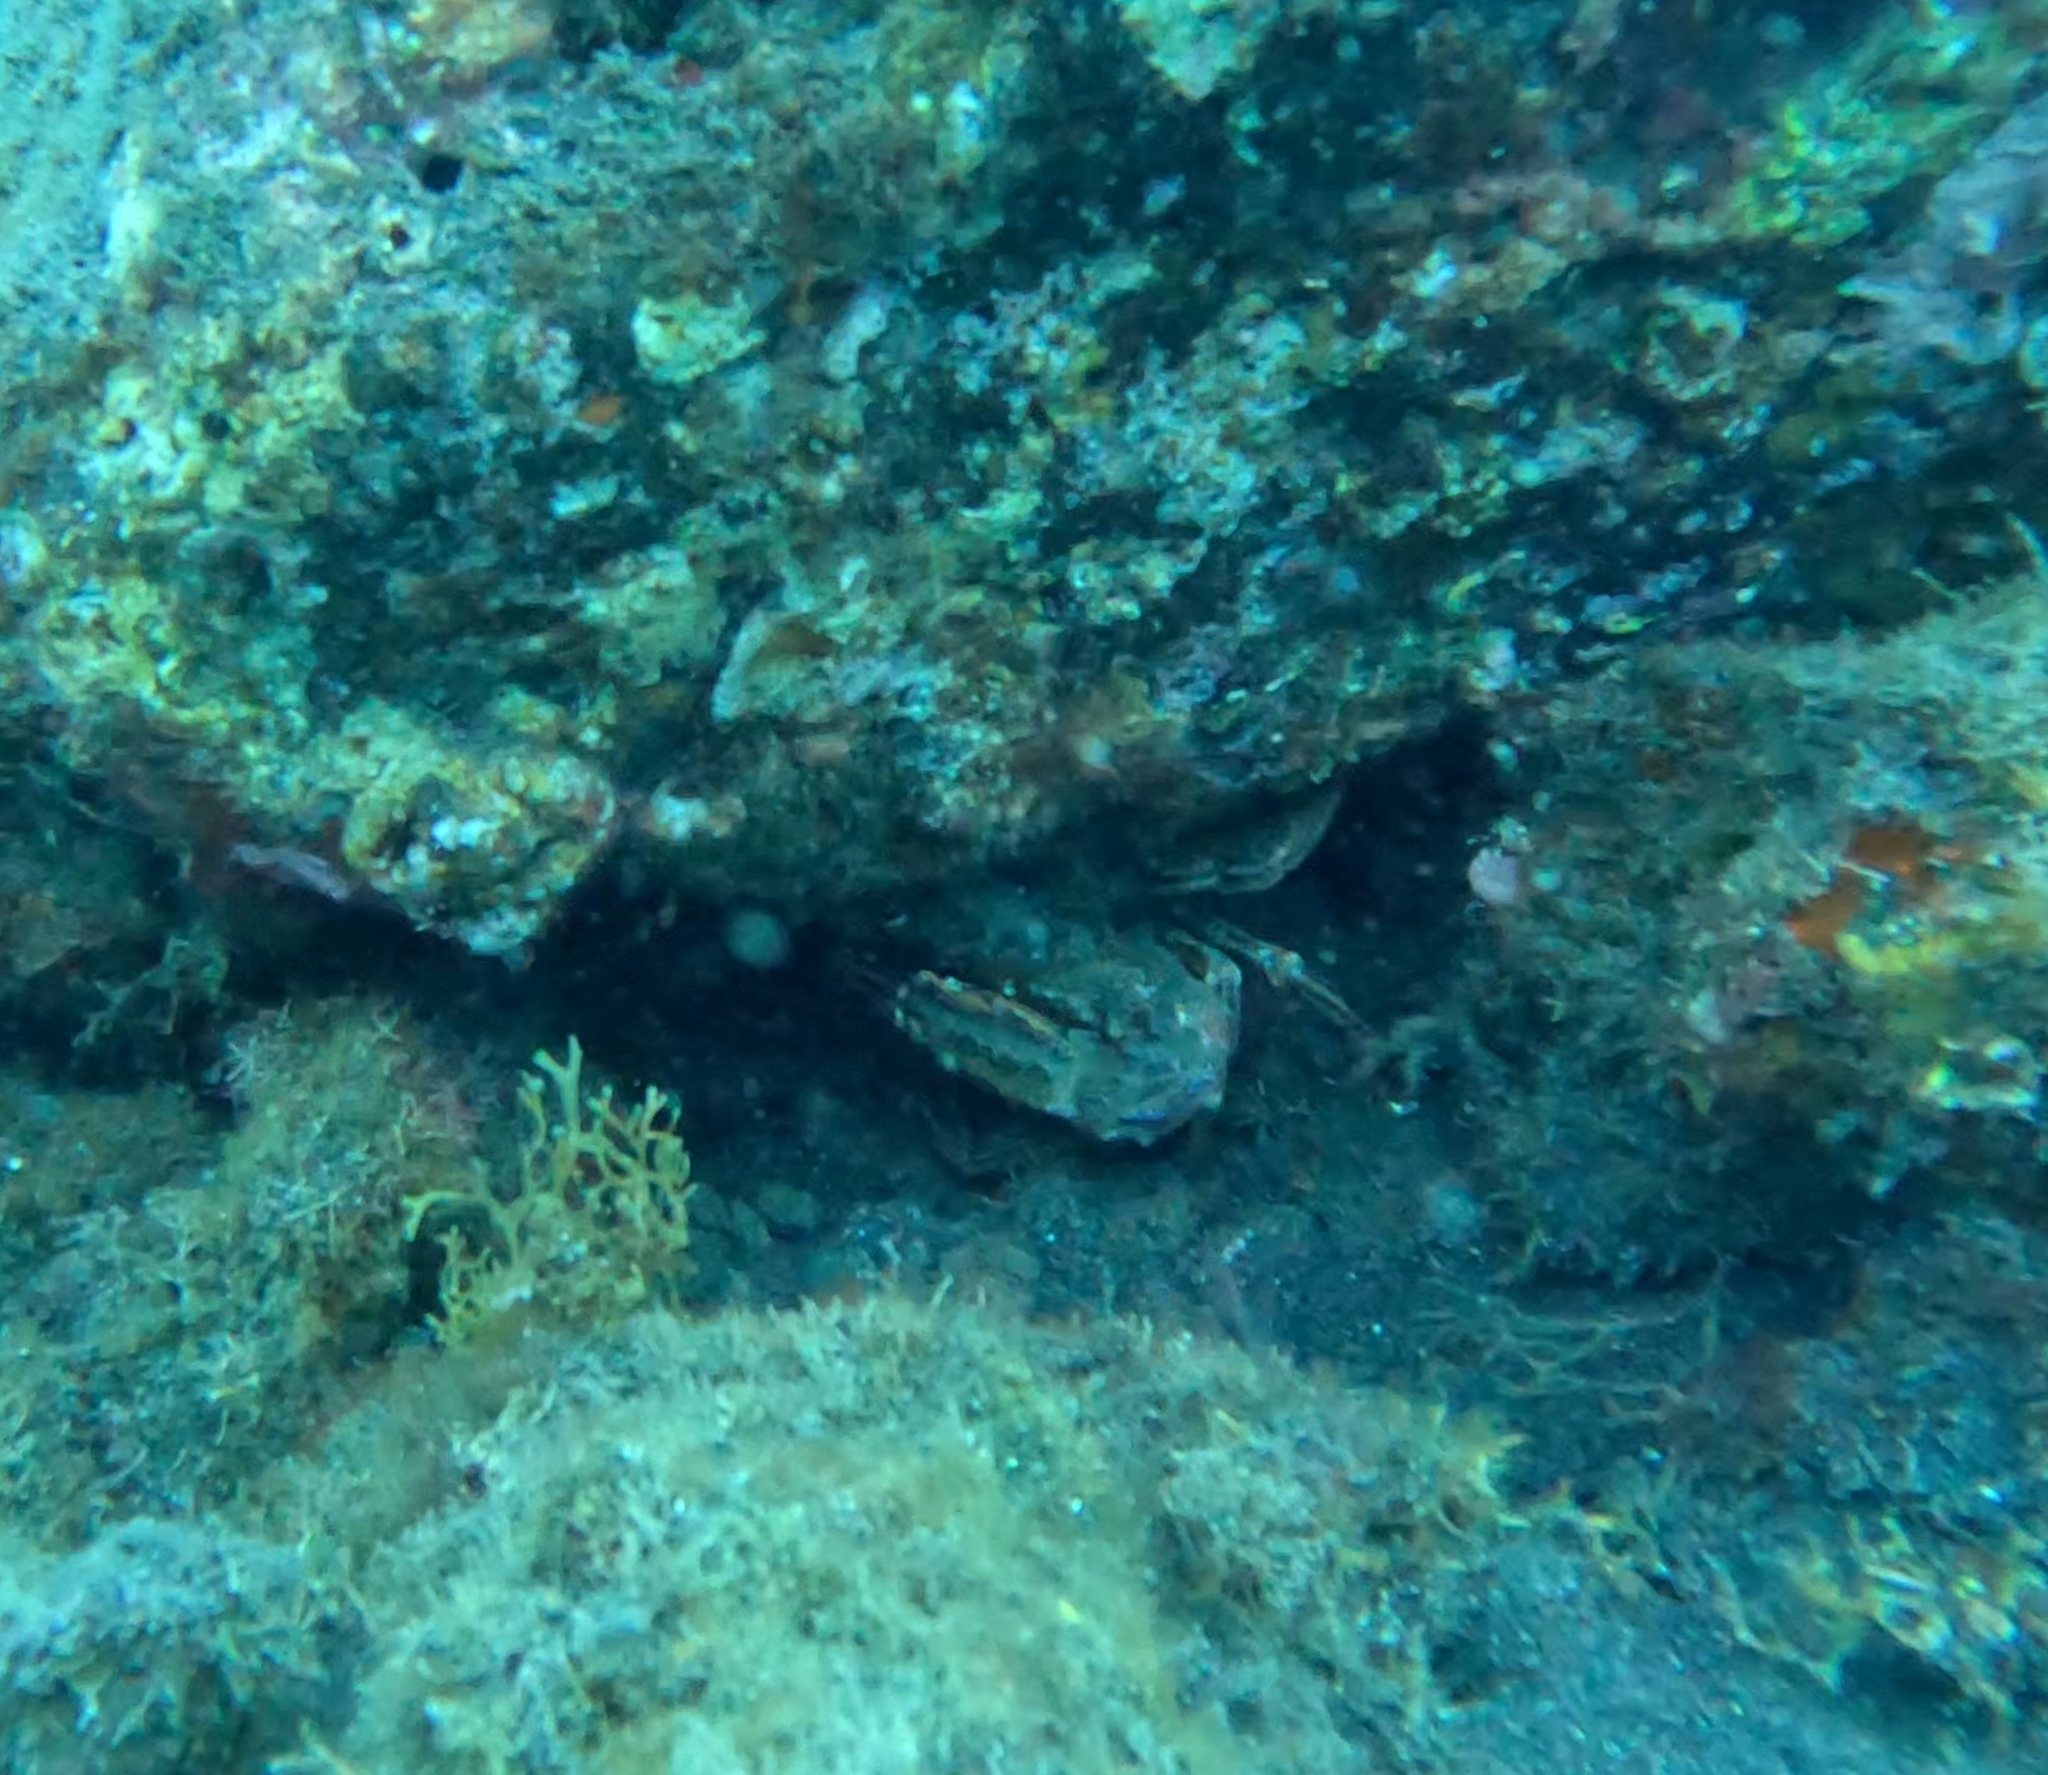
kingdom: Animalia
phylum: Arthropoda
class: Malacostraca
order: Decapoda
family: Portunidae
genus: Cronius
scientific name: Cronius ruber
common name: Red crab
